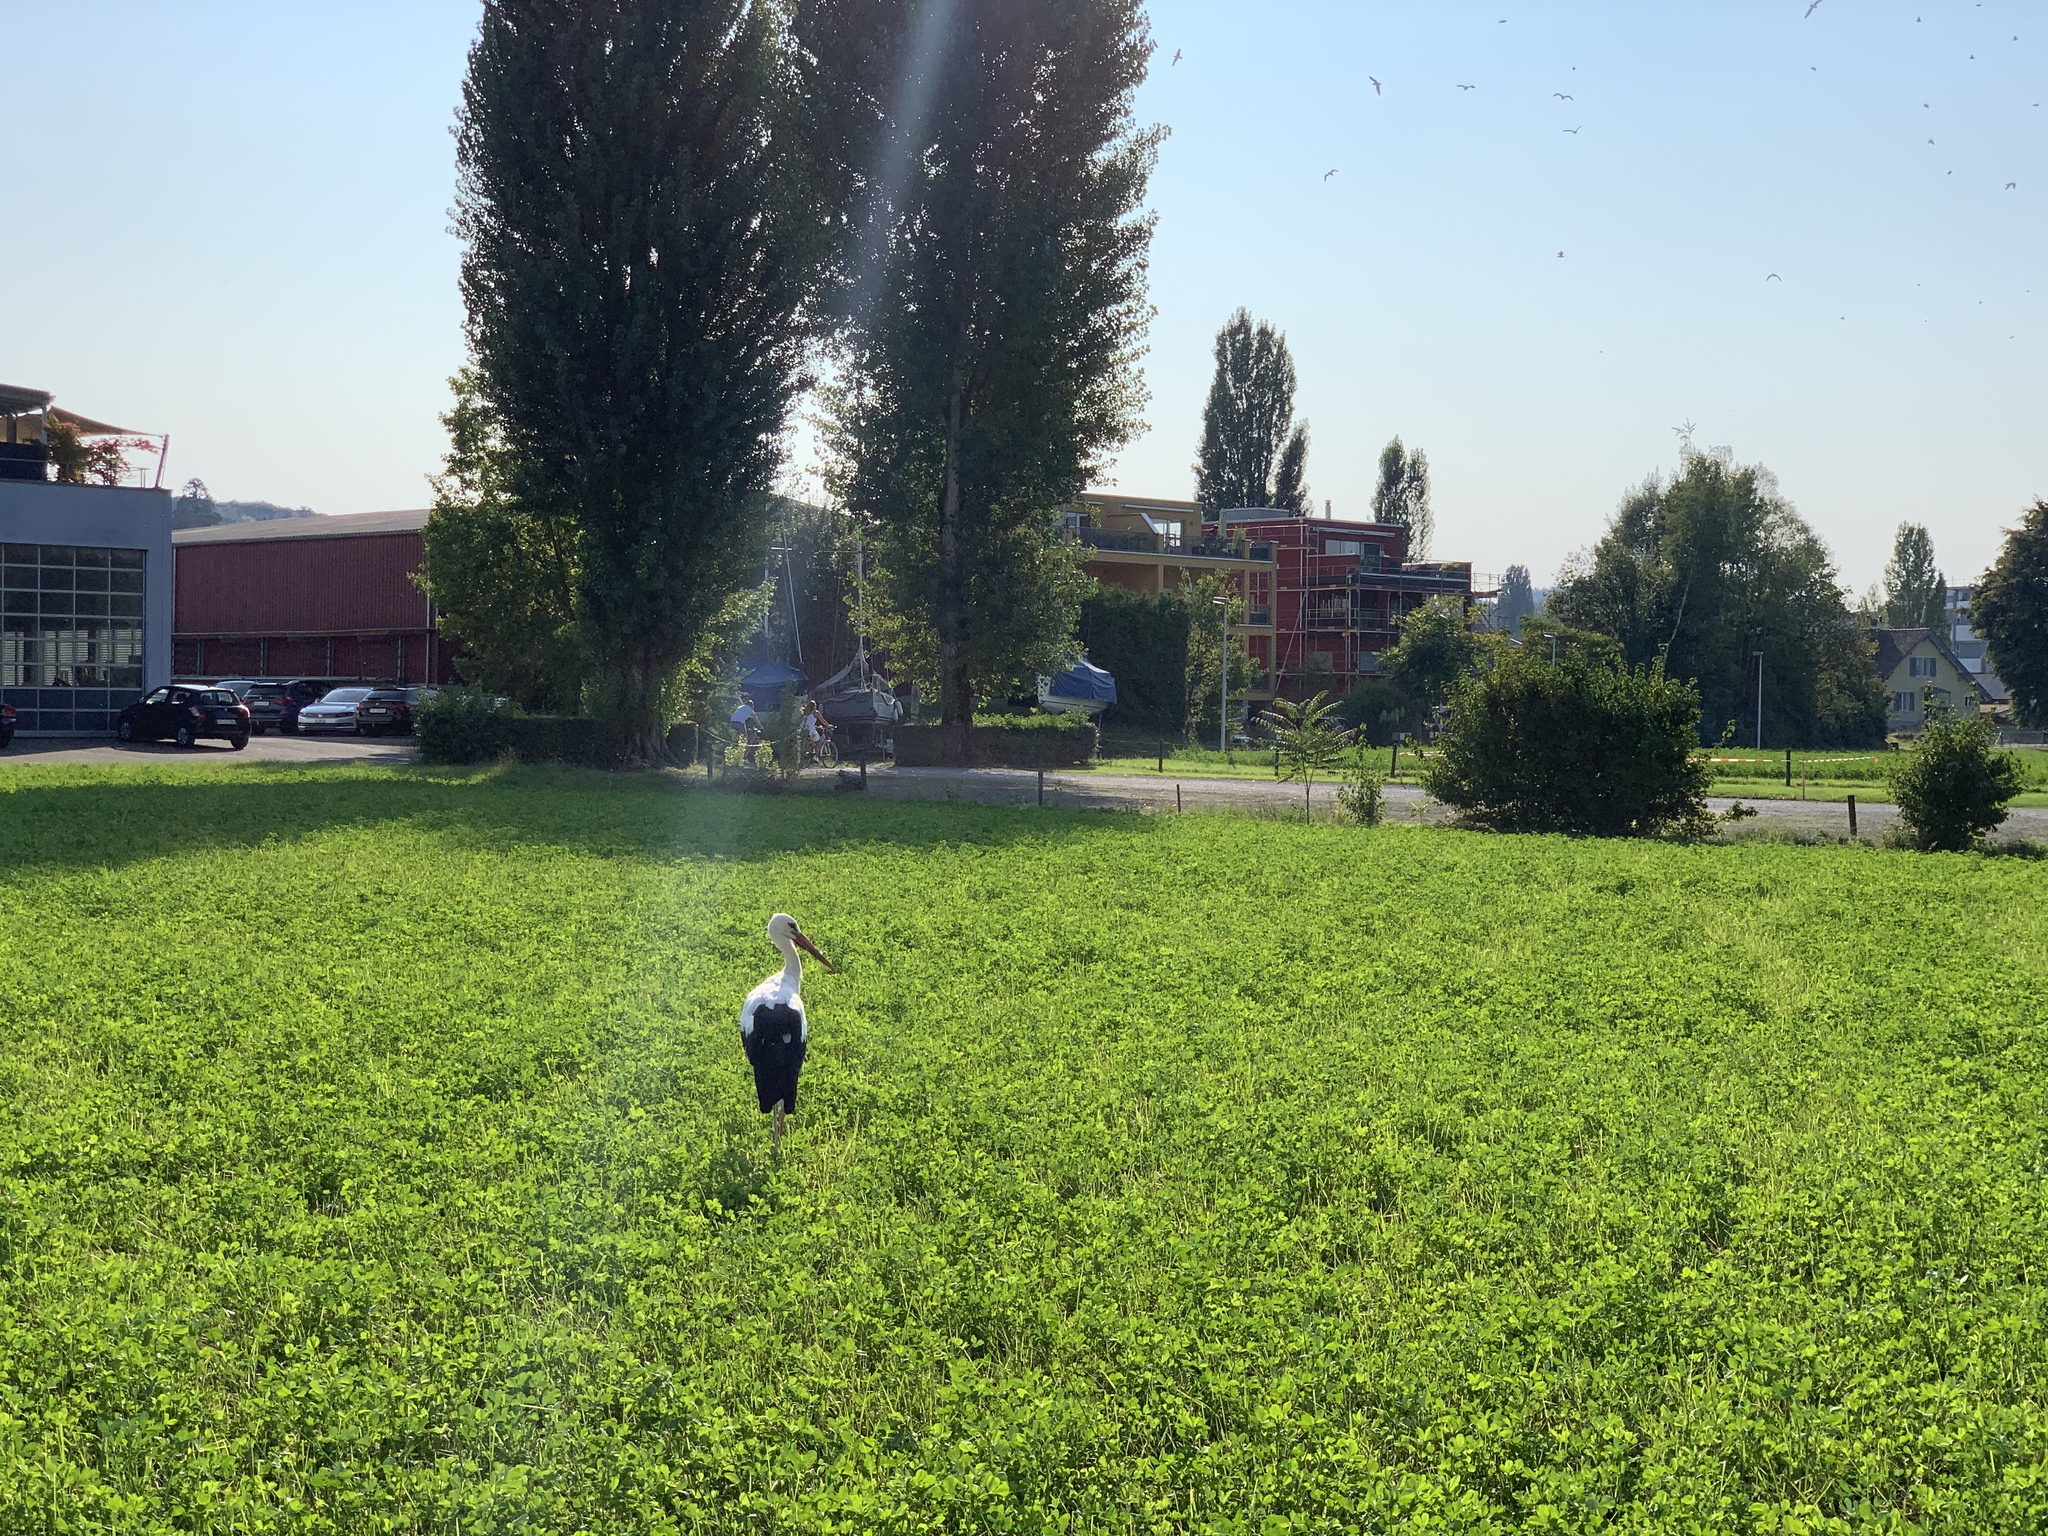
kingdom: Animalia
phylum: Chordata
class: Aves
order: Ciconiiformes
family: Ciconiidae
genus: Ciconia
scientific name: Ciconia ciconia
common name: White stork
